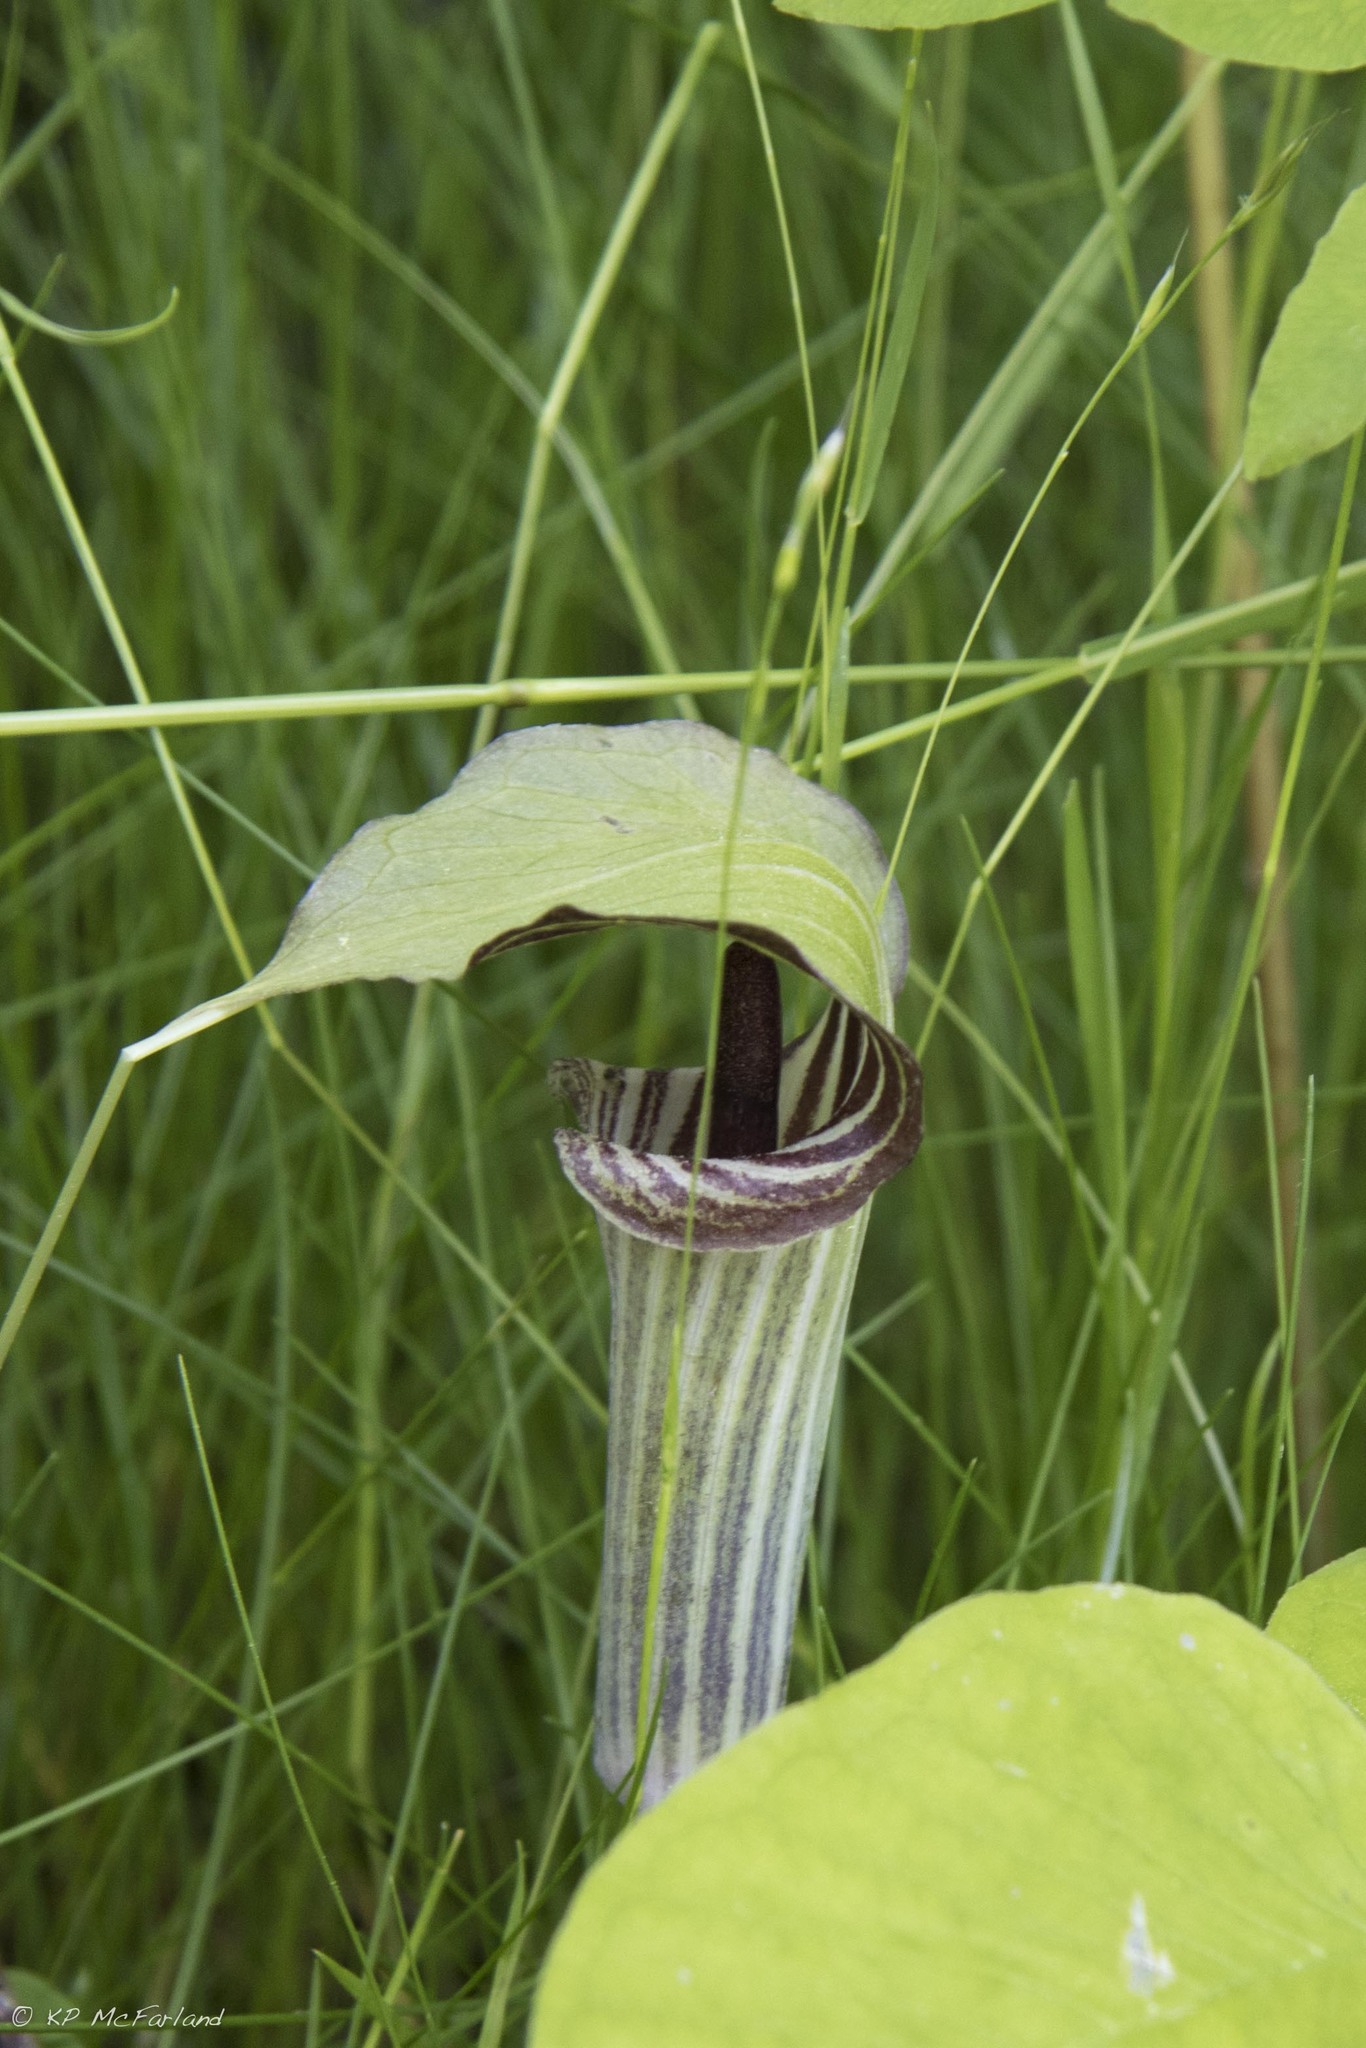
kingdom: Plantae
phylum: Tracheophyta
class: Liliopsida
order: Alismatales
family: Araceae
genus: Arisaema
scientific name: Arisaema triphyllum
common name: Jack-in-the-pulpit
